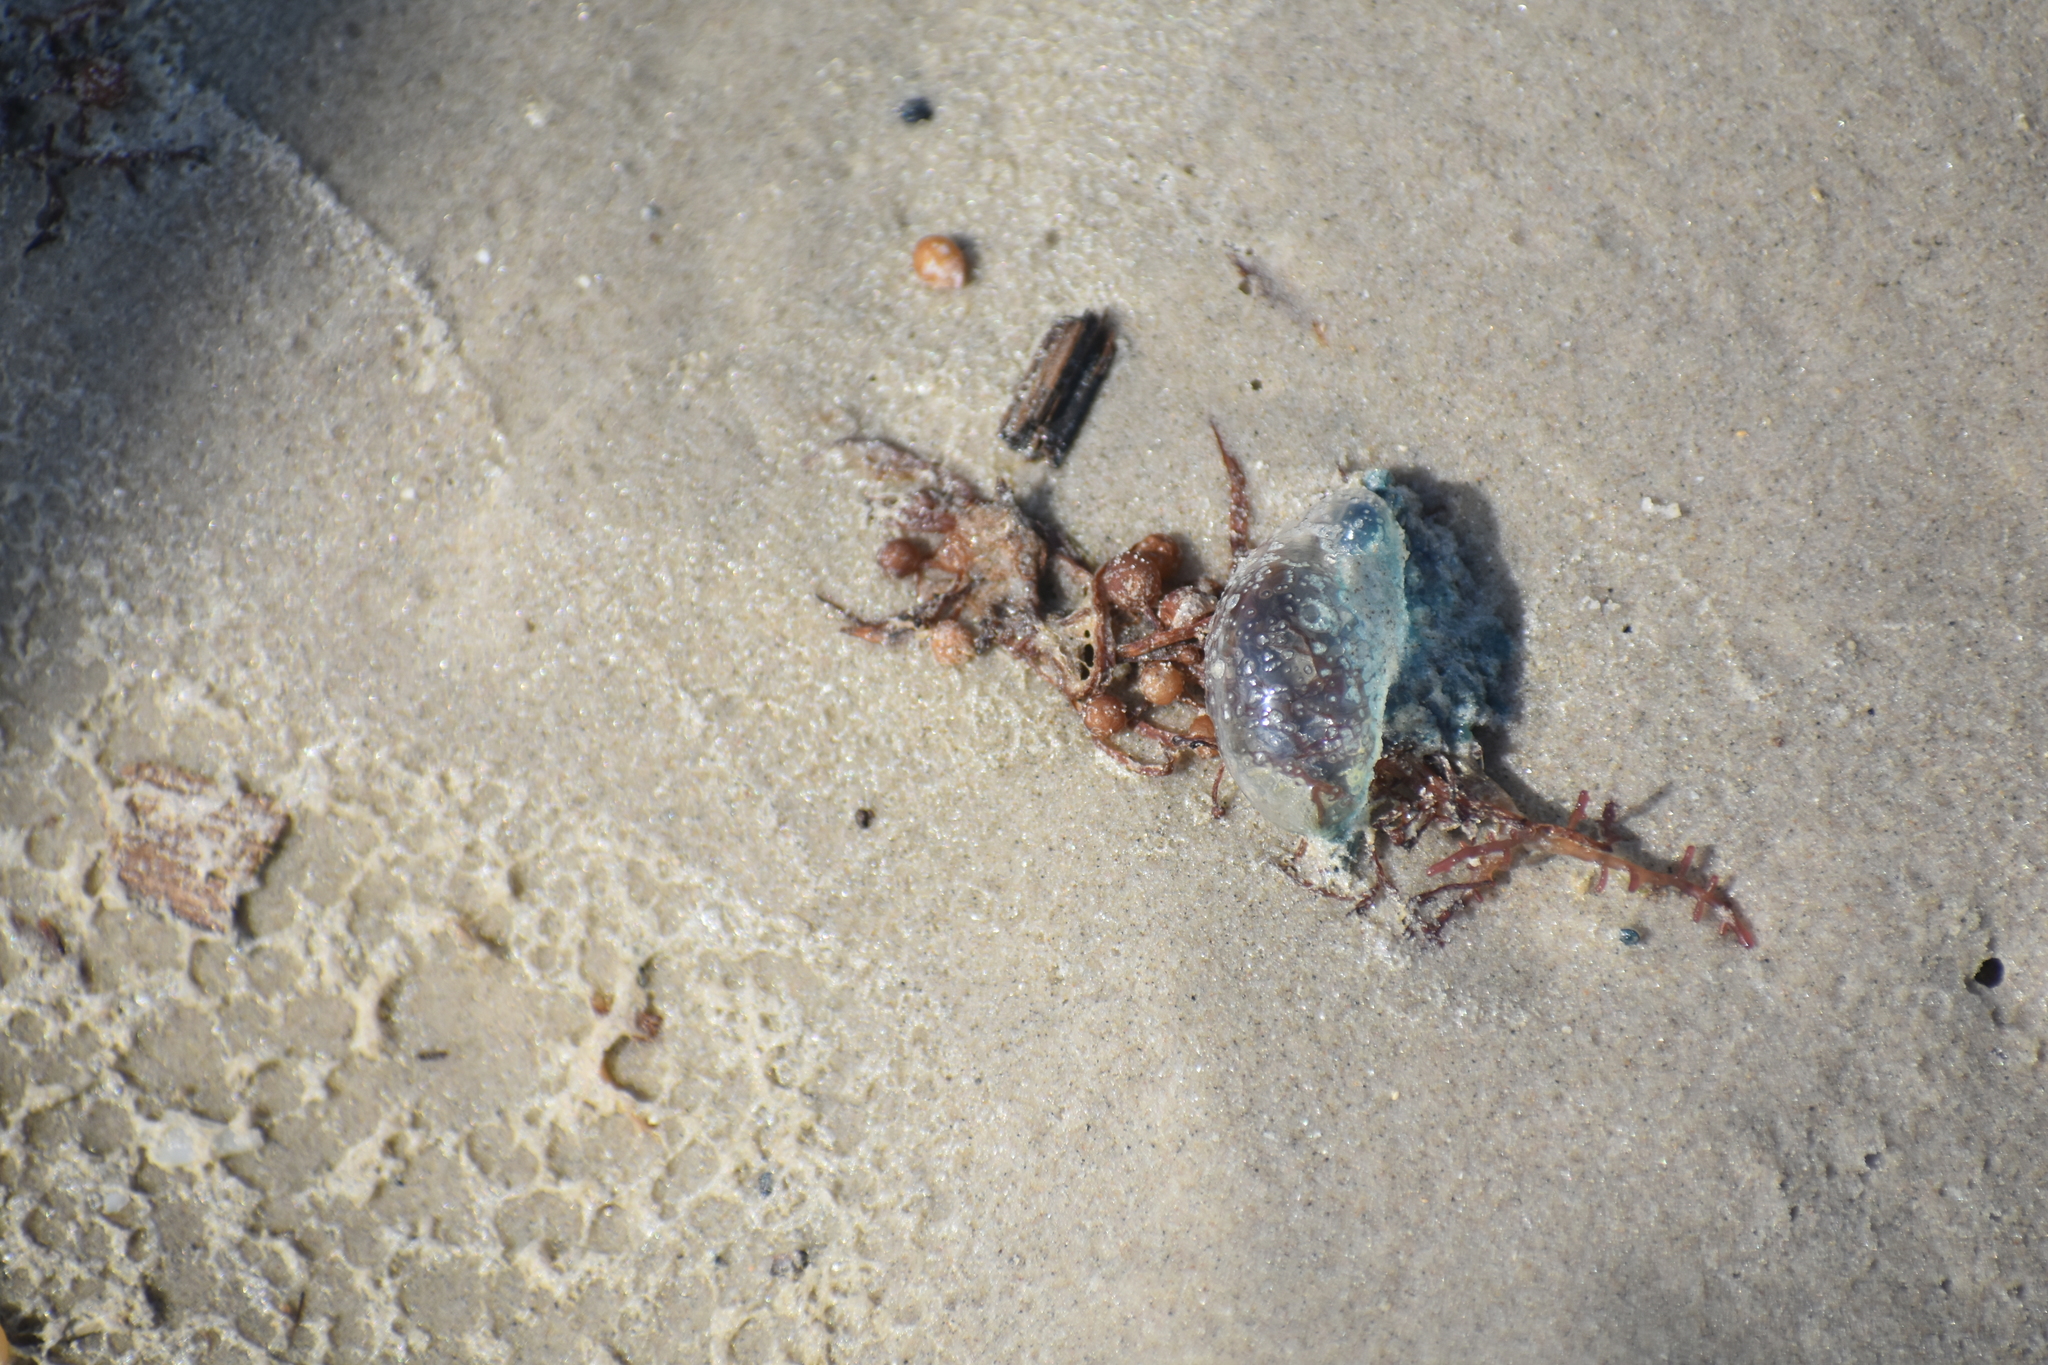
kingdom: Animalia
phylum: Cnidaria
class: Hydrozoa
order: Siphonophorae
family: Physaliidae
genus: Physalia
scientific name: Physalia physalis
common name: Portuguese man-of-war
